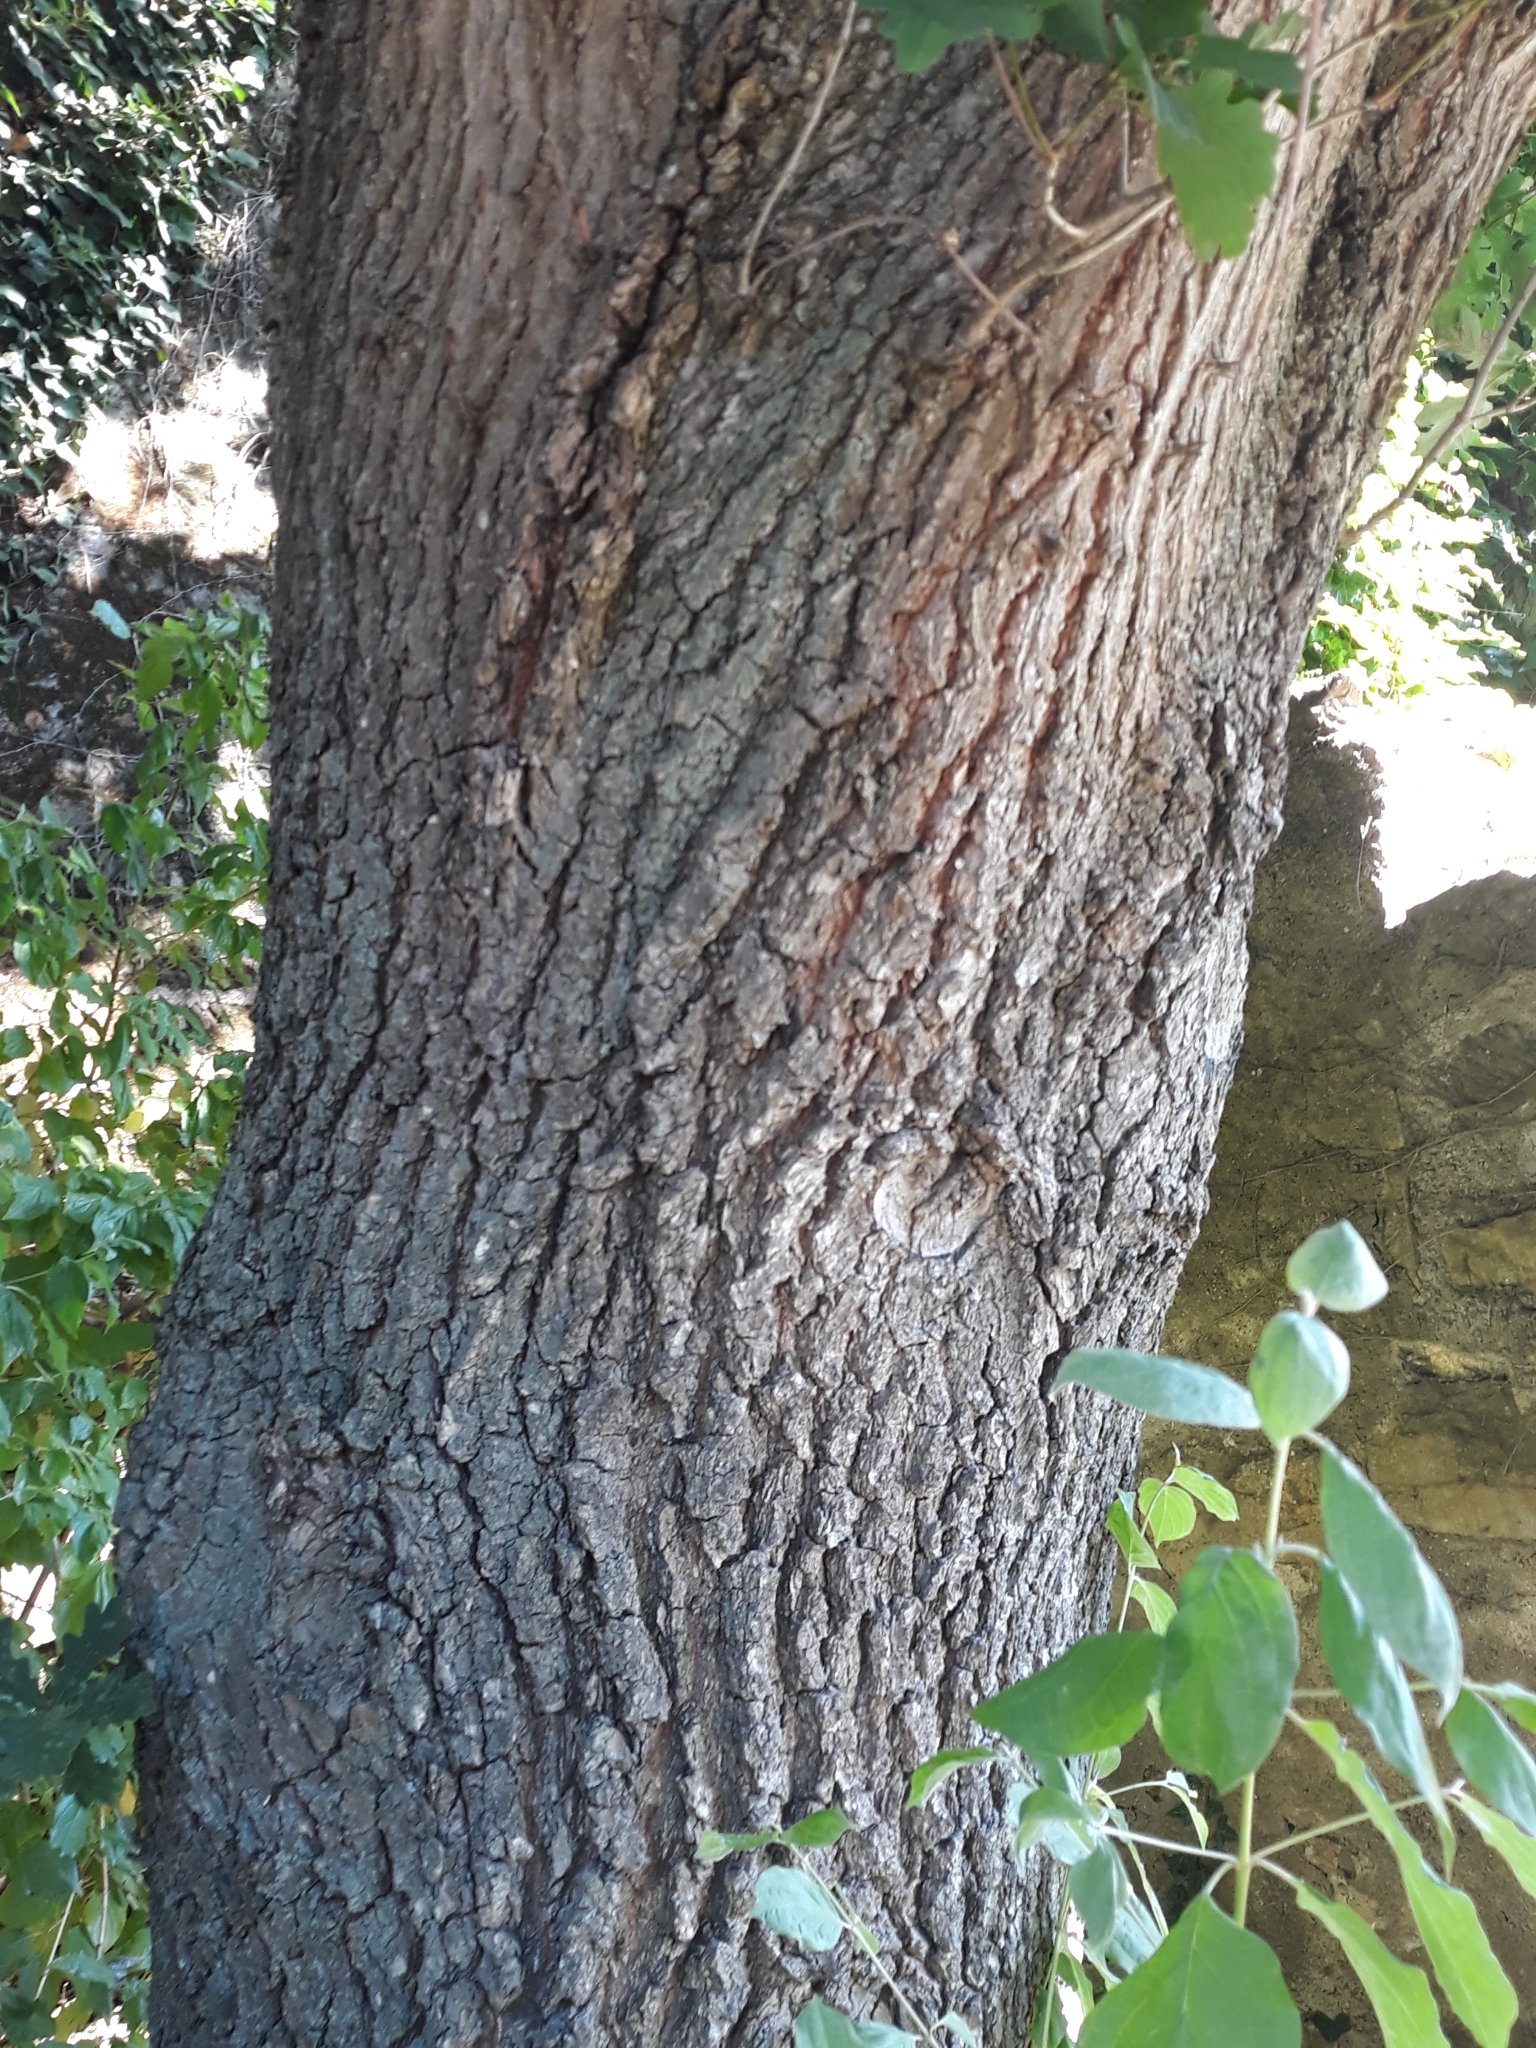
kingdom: Plantae
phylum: Tracheophyta
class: Magnoliopsida
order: Fagales
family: Fagaceae
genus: Quercus
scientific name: Quercus robur
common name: Pedunculate oak
